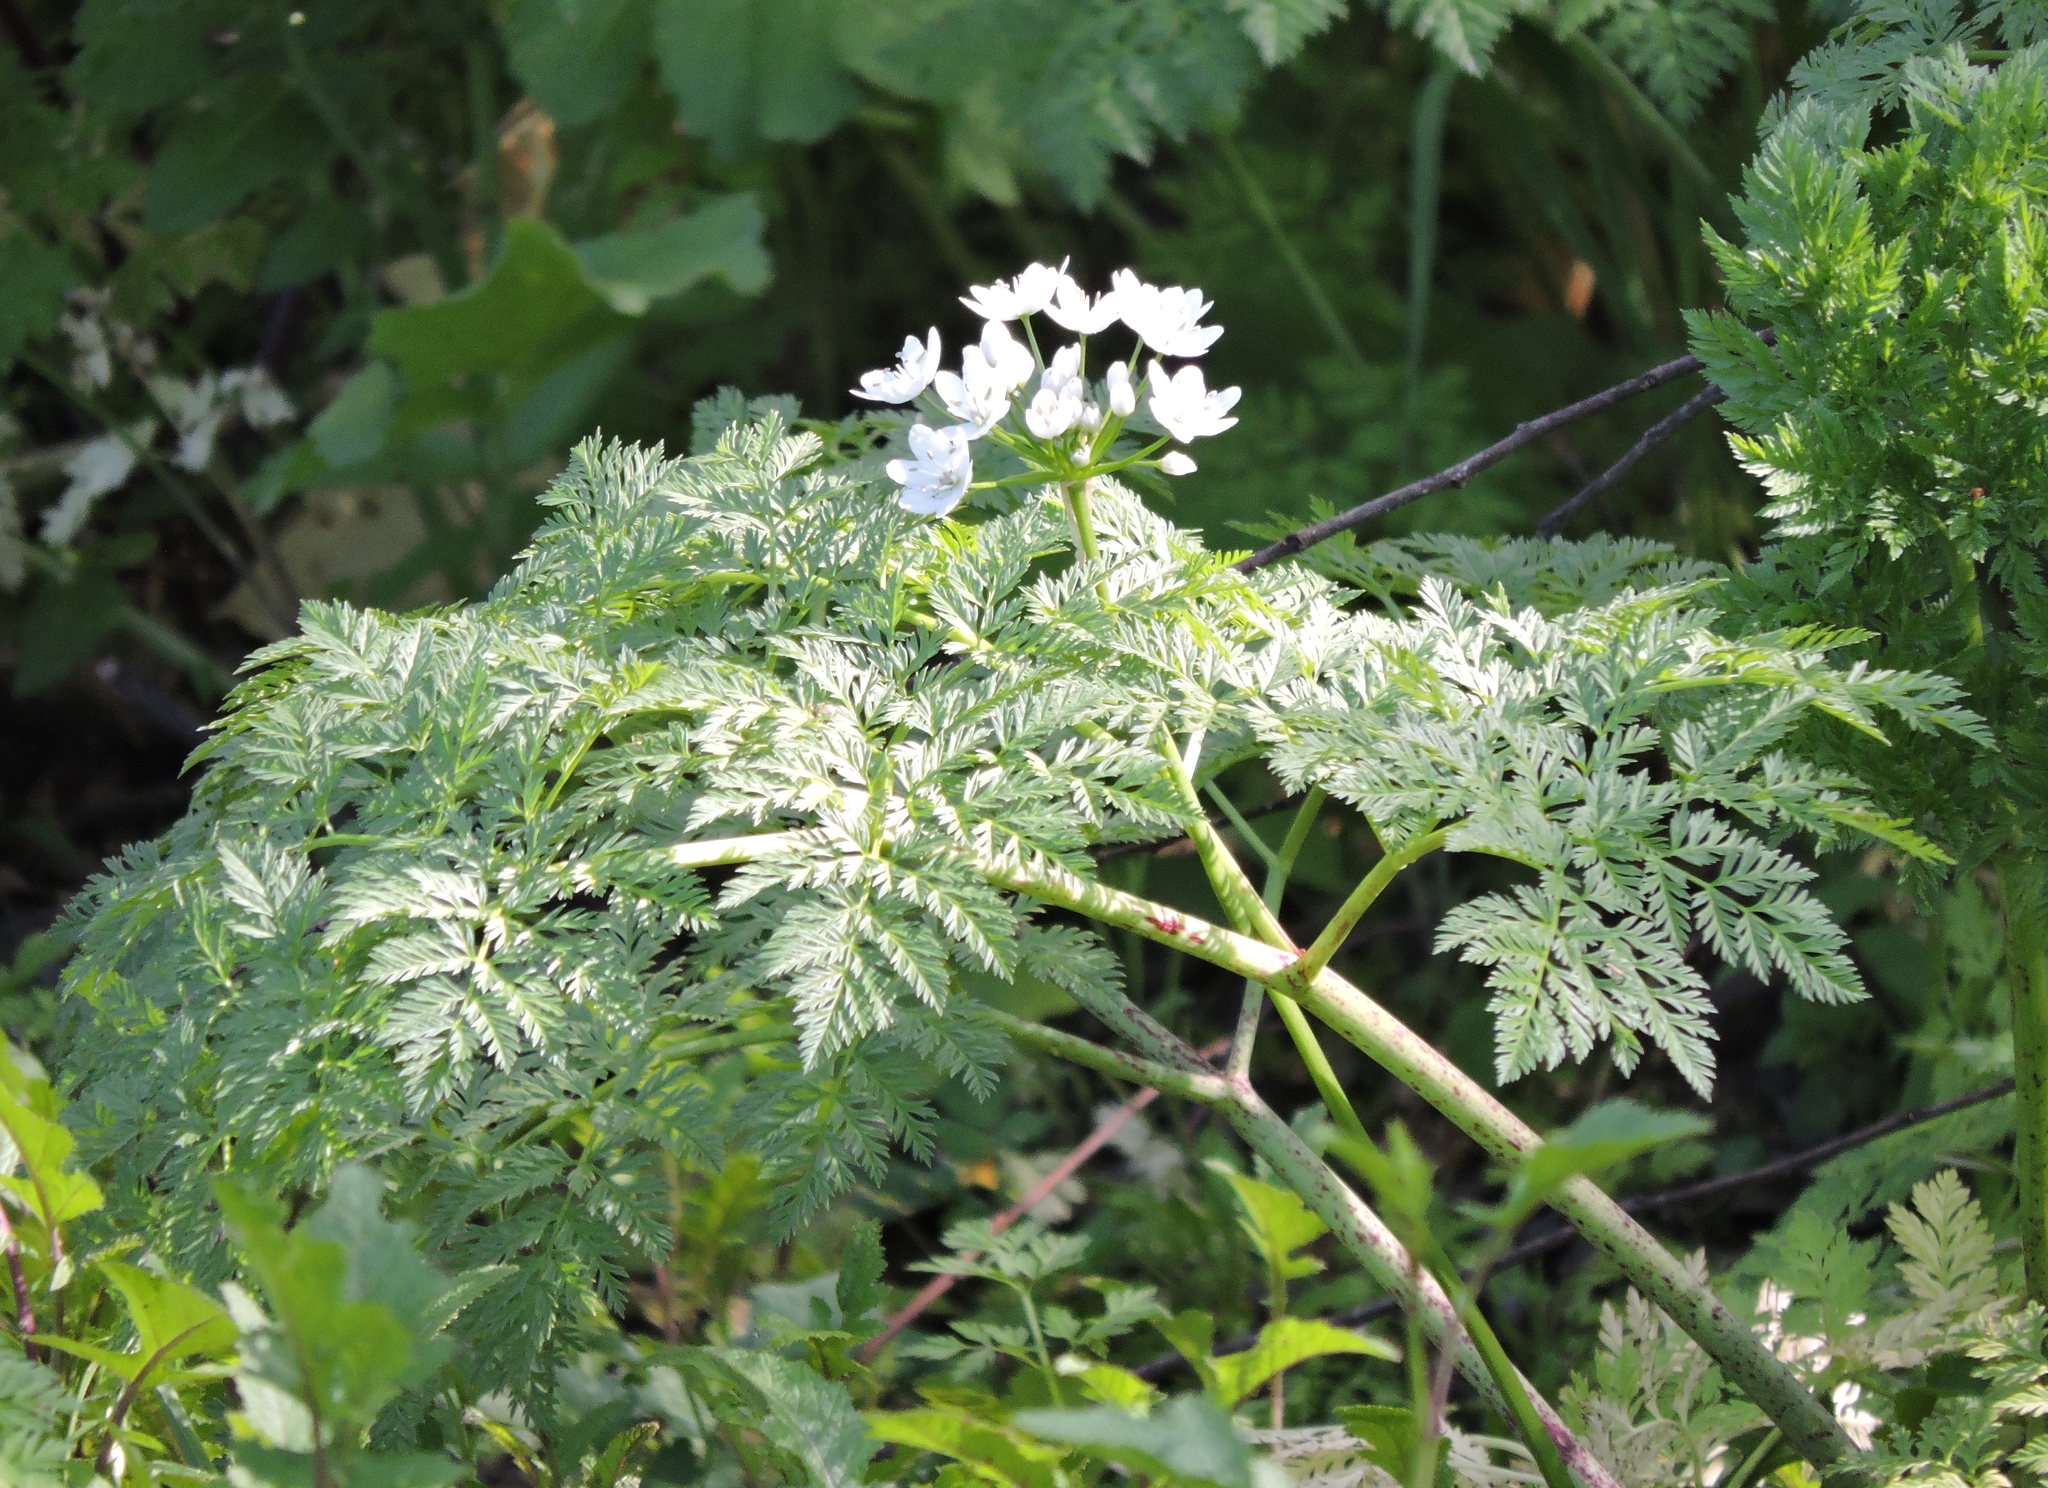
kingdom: Plantae
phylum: Tracheophyta
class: Magnoliopsida
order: Apiales
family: Apiaceae
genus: Conium
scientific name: Conium maculatum
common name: Hemlock
